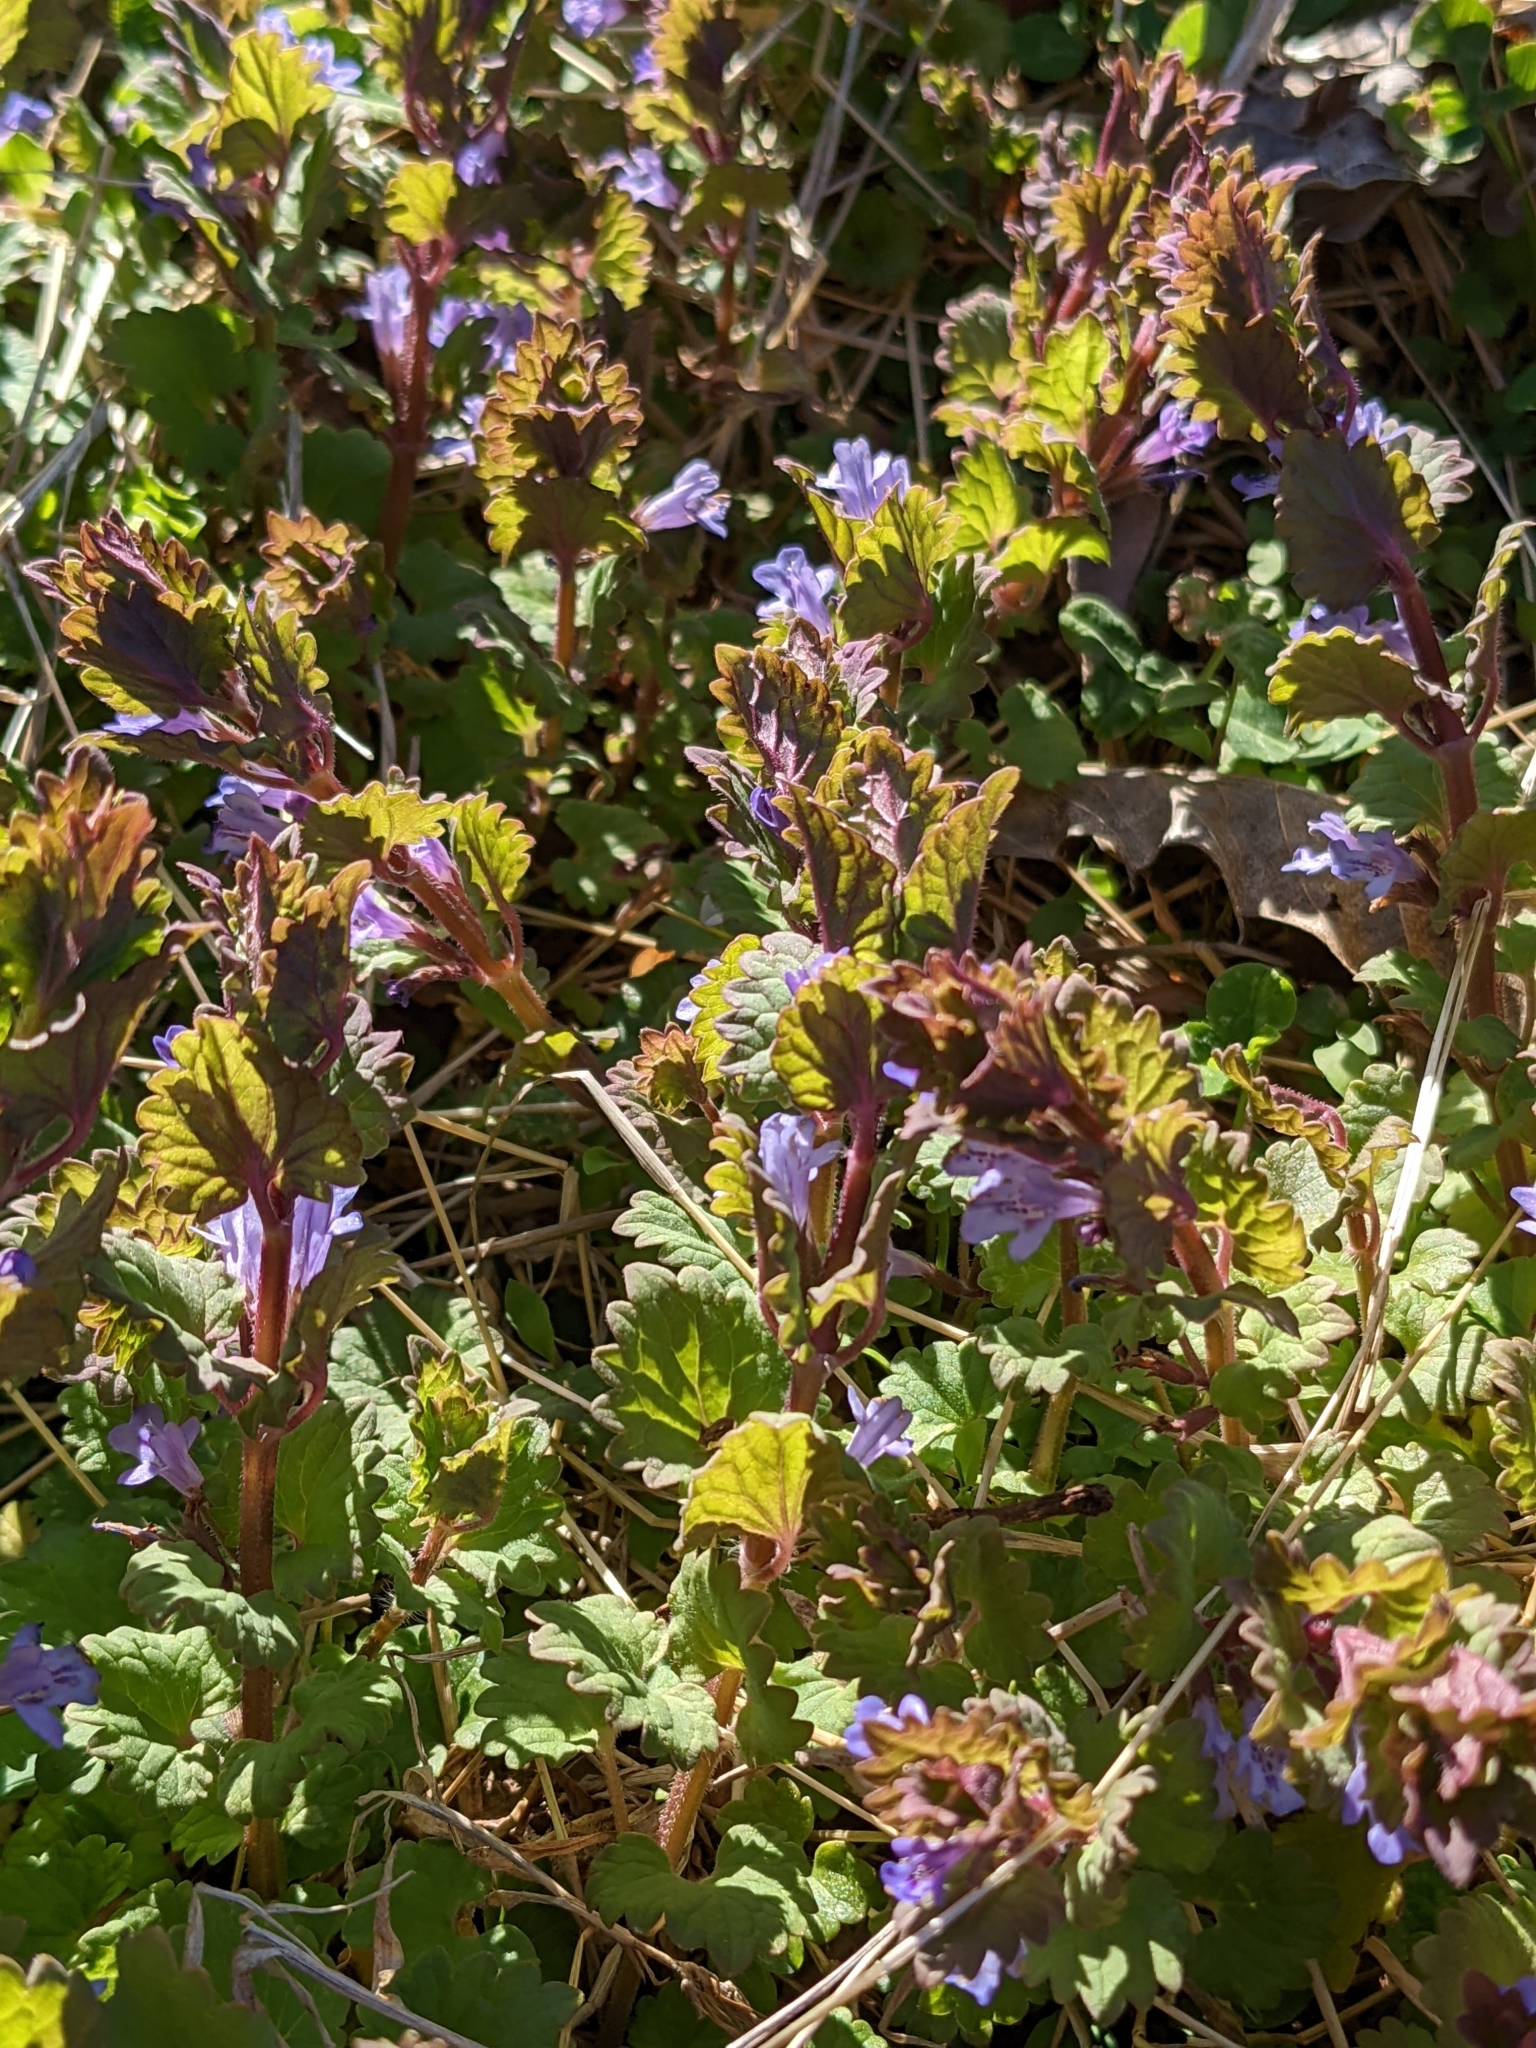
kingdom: Plantae
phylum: Tracheophyta
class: Magnoliopsida
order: Lamiales
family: Lamiaceae
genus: Glechoma
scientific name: Glechoma hederacea
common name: Ground ivy
